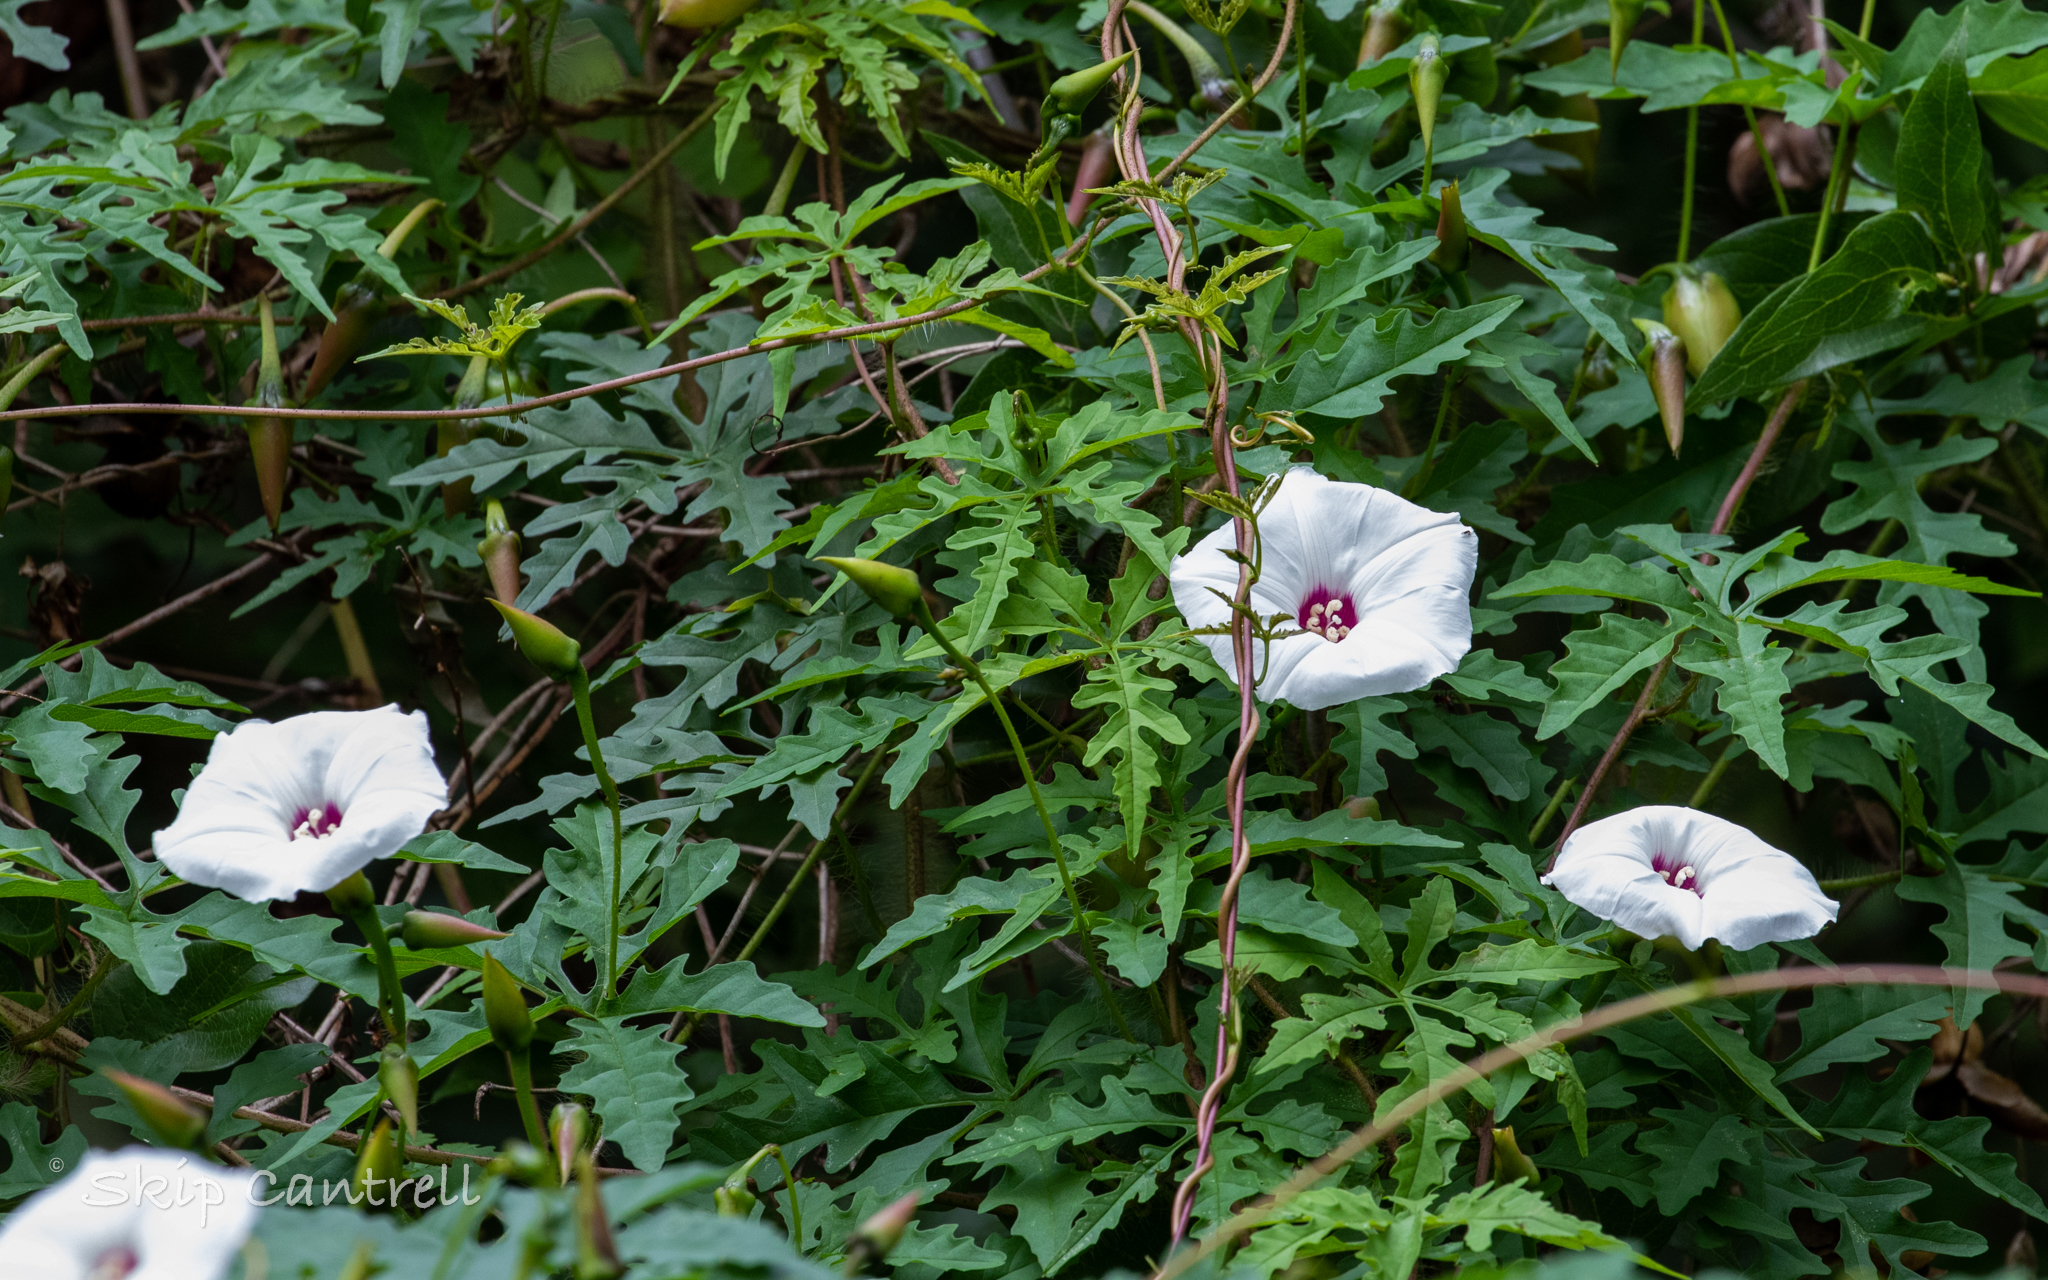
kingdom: Plantae
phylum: Tracheophyta
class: Magnoliopsida
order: Solanales
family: Convolvulaceae
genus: Distimake
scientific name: Distimake dissectus
